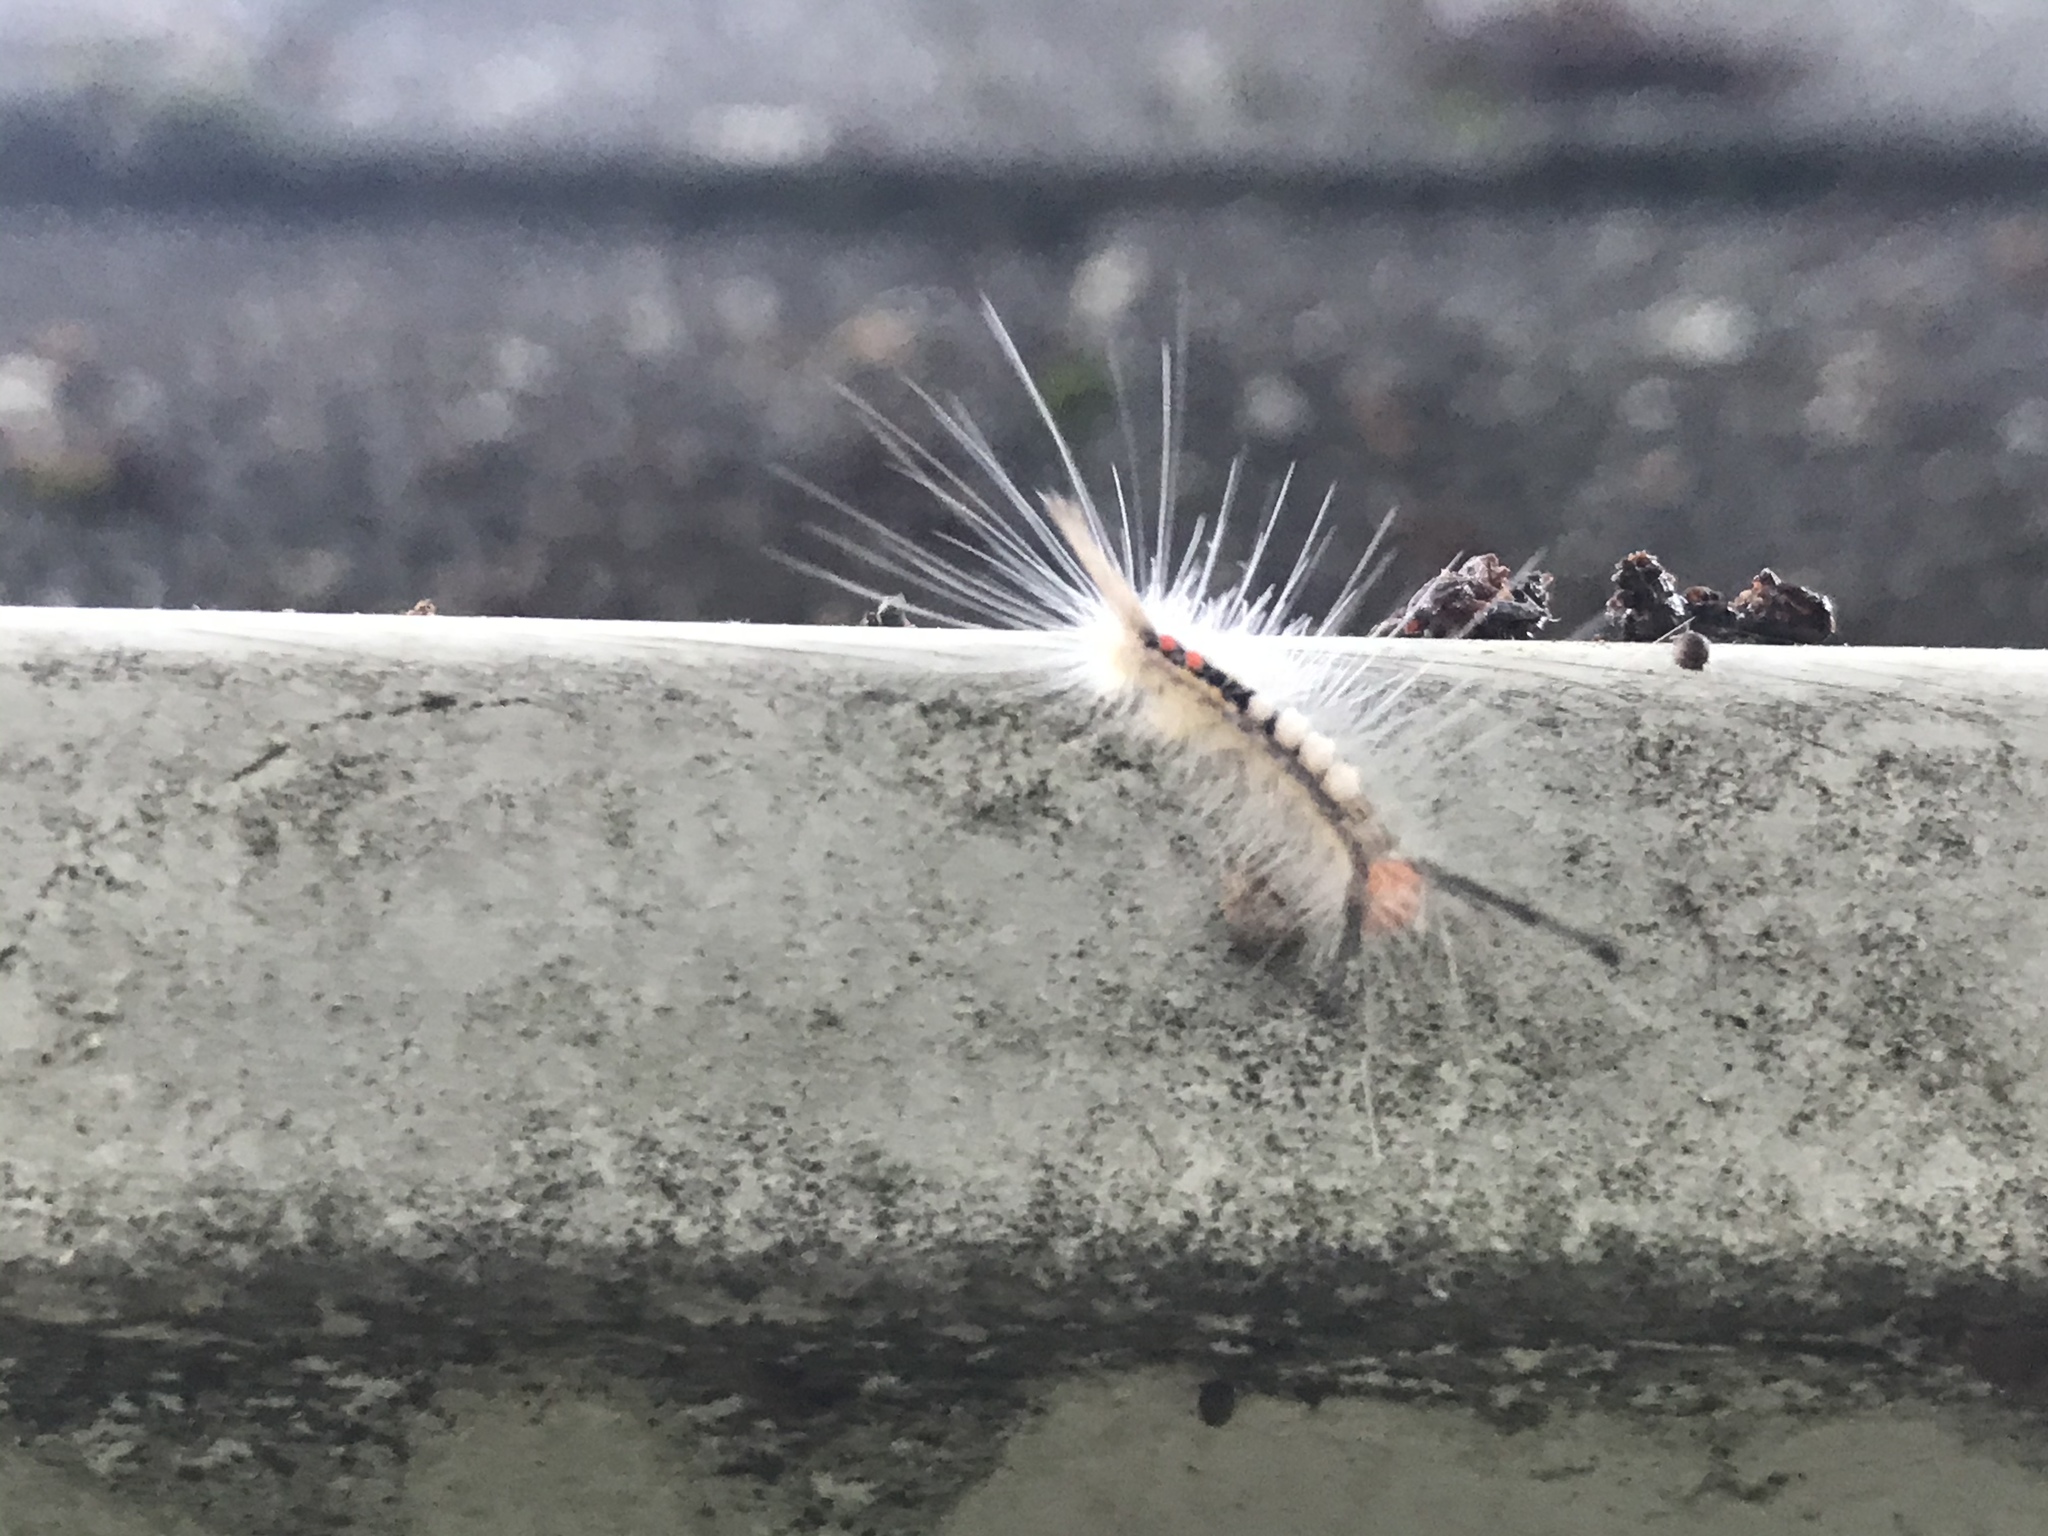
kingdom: Animalia
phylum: Arthropoda
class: Insecta
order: Lepidoptera
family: Erebidae
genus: Orgyia
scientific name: Orgyia leucostigma
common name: White-marked tussock moth
